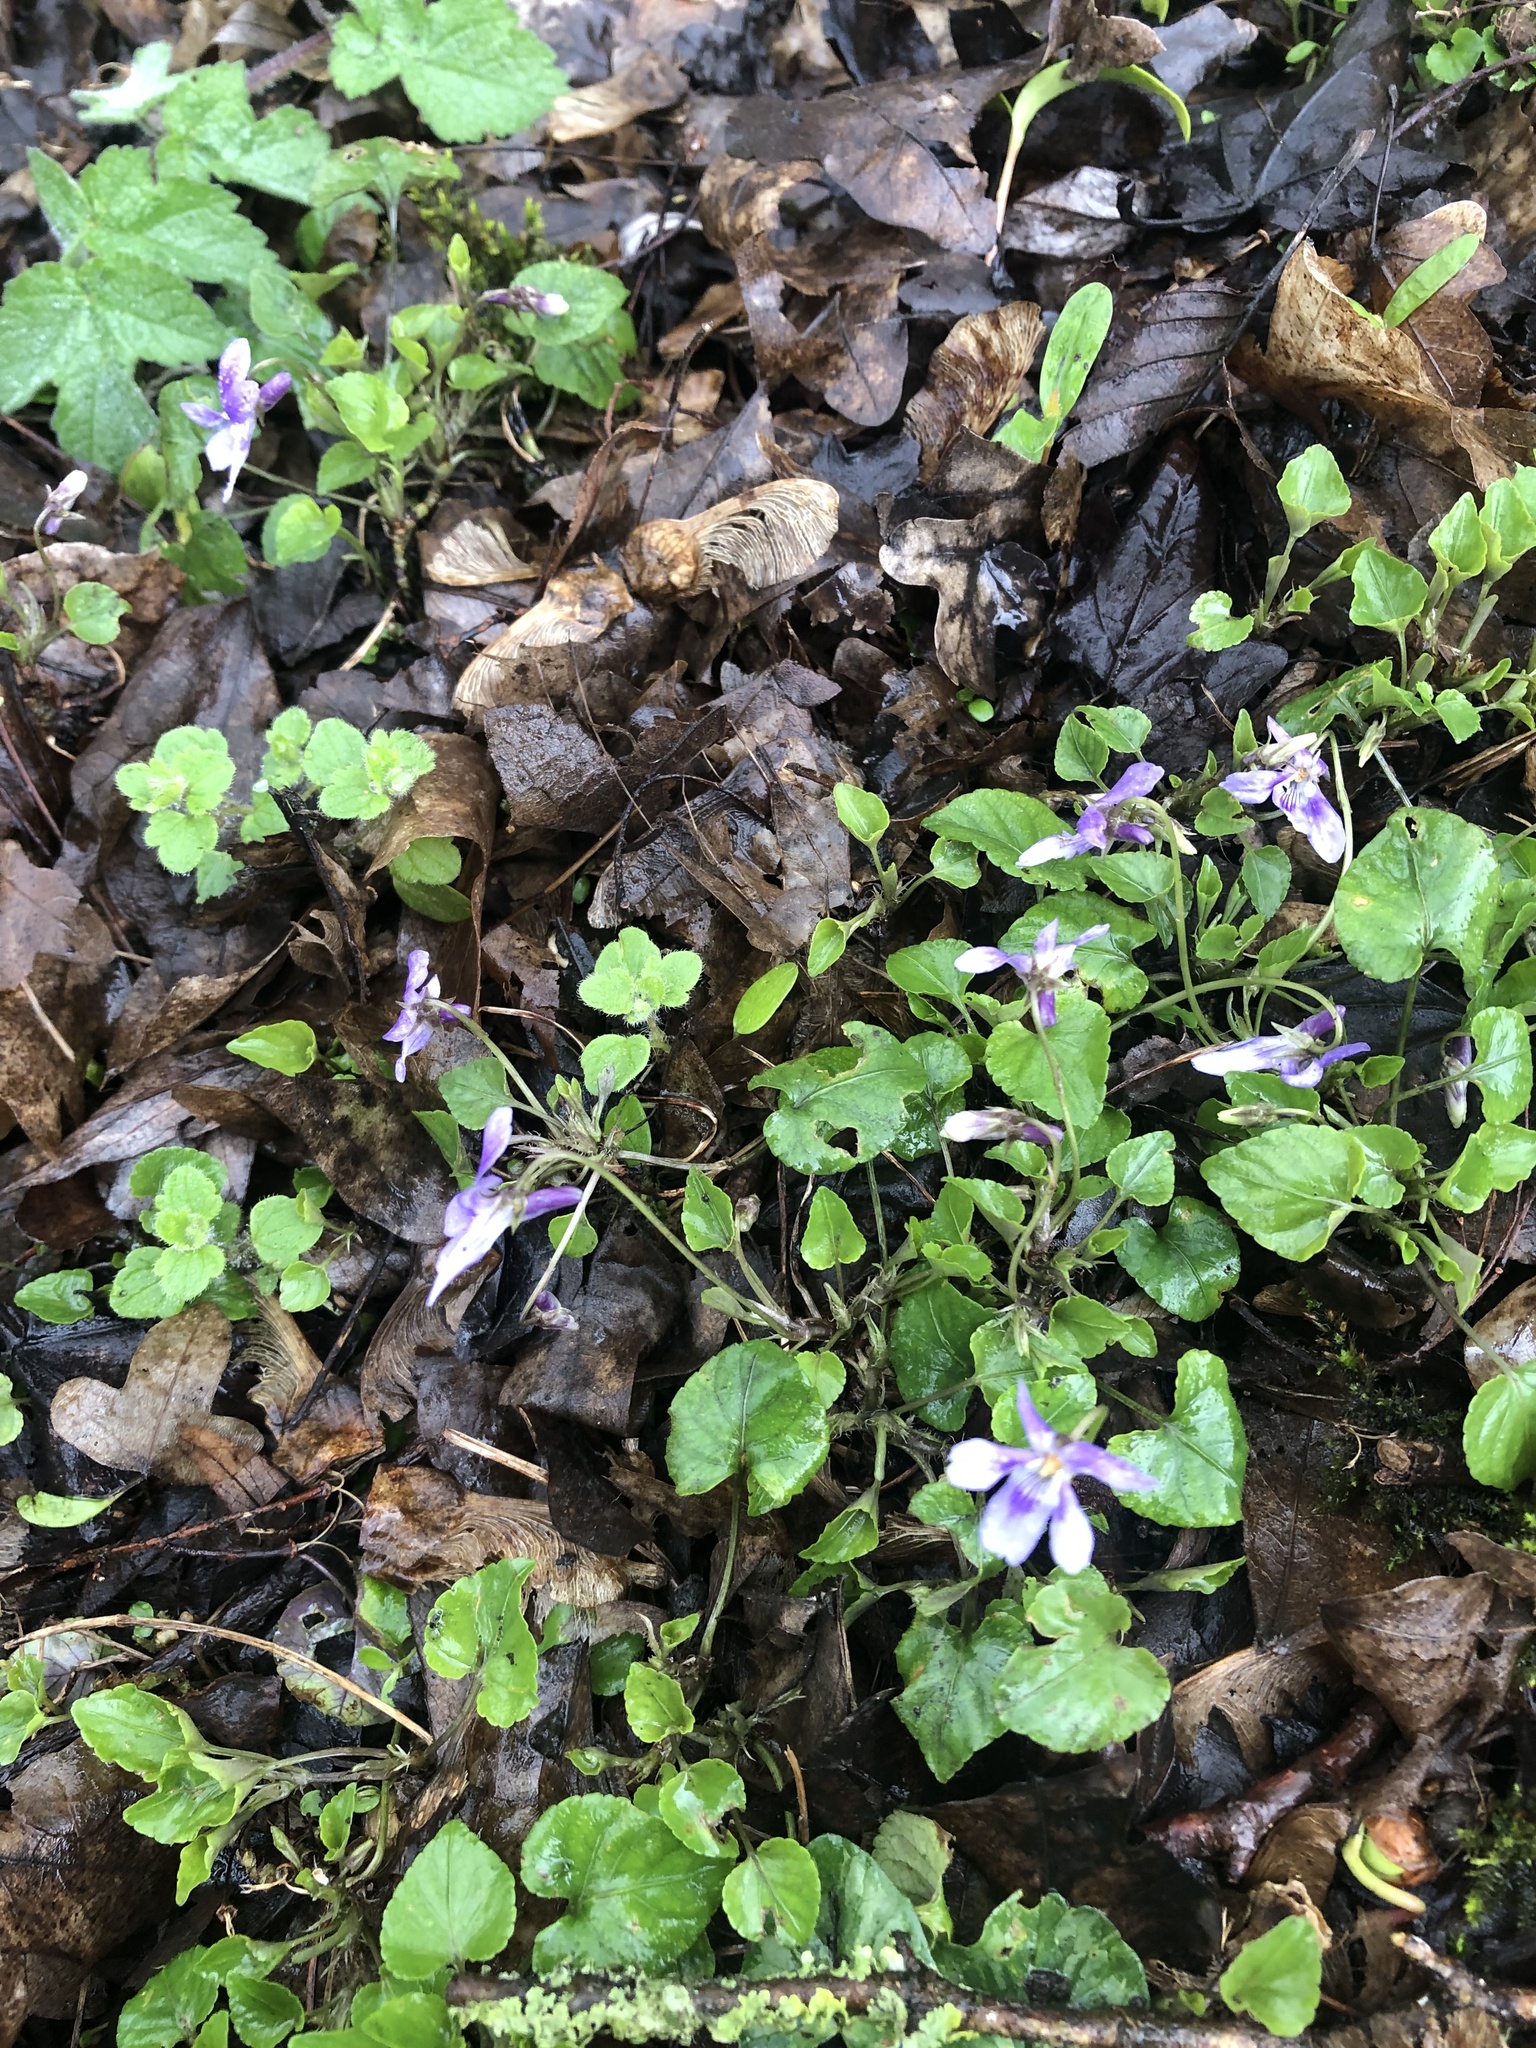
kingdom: Plantae
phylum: Tracheophyta
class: Magnoliopsida
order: Malpighiales
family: Violaceae
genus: Viola
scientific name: Viola reichenbachiana
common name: Early dog-violet
